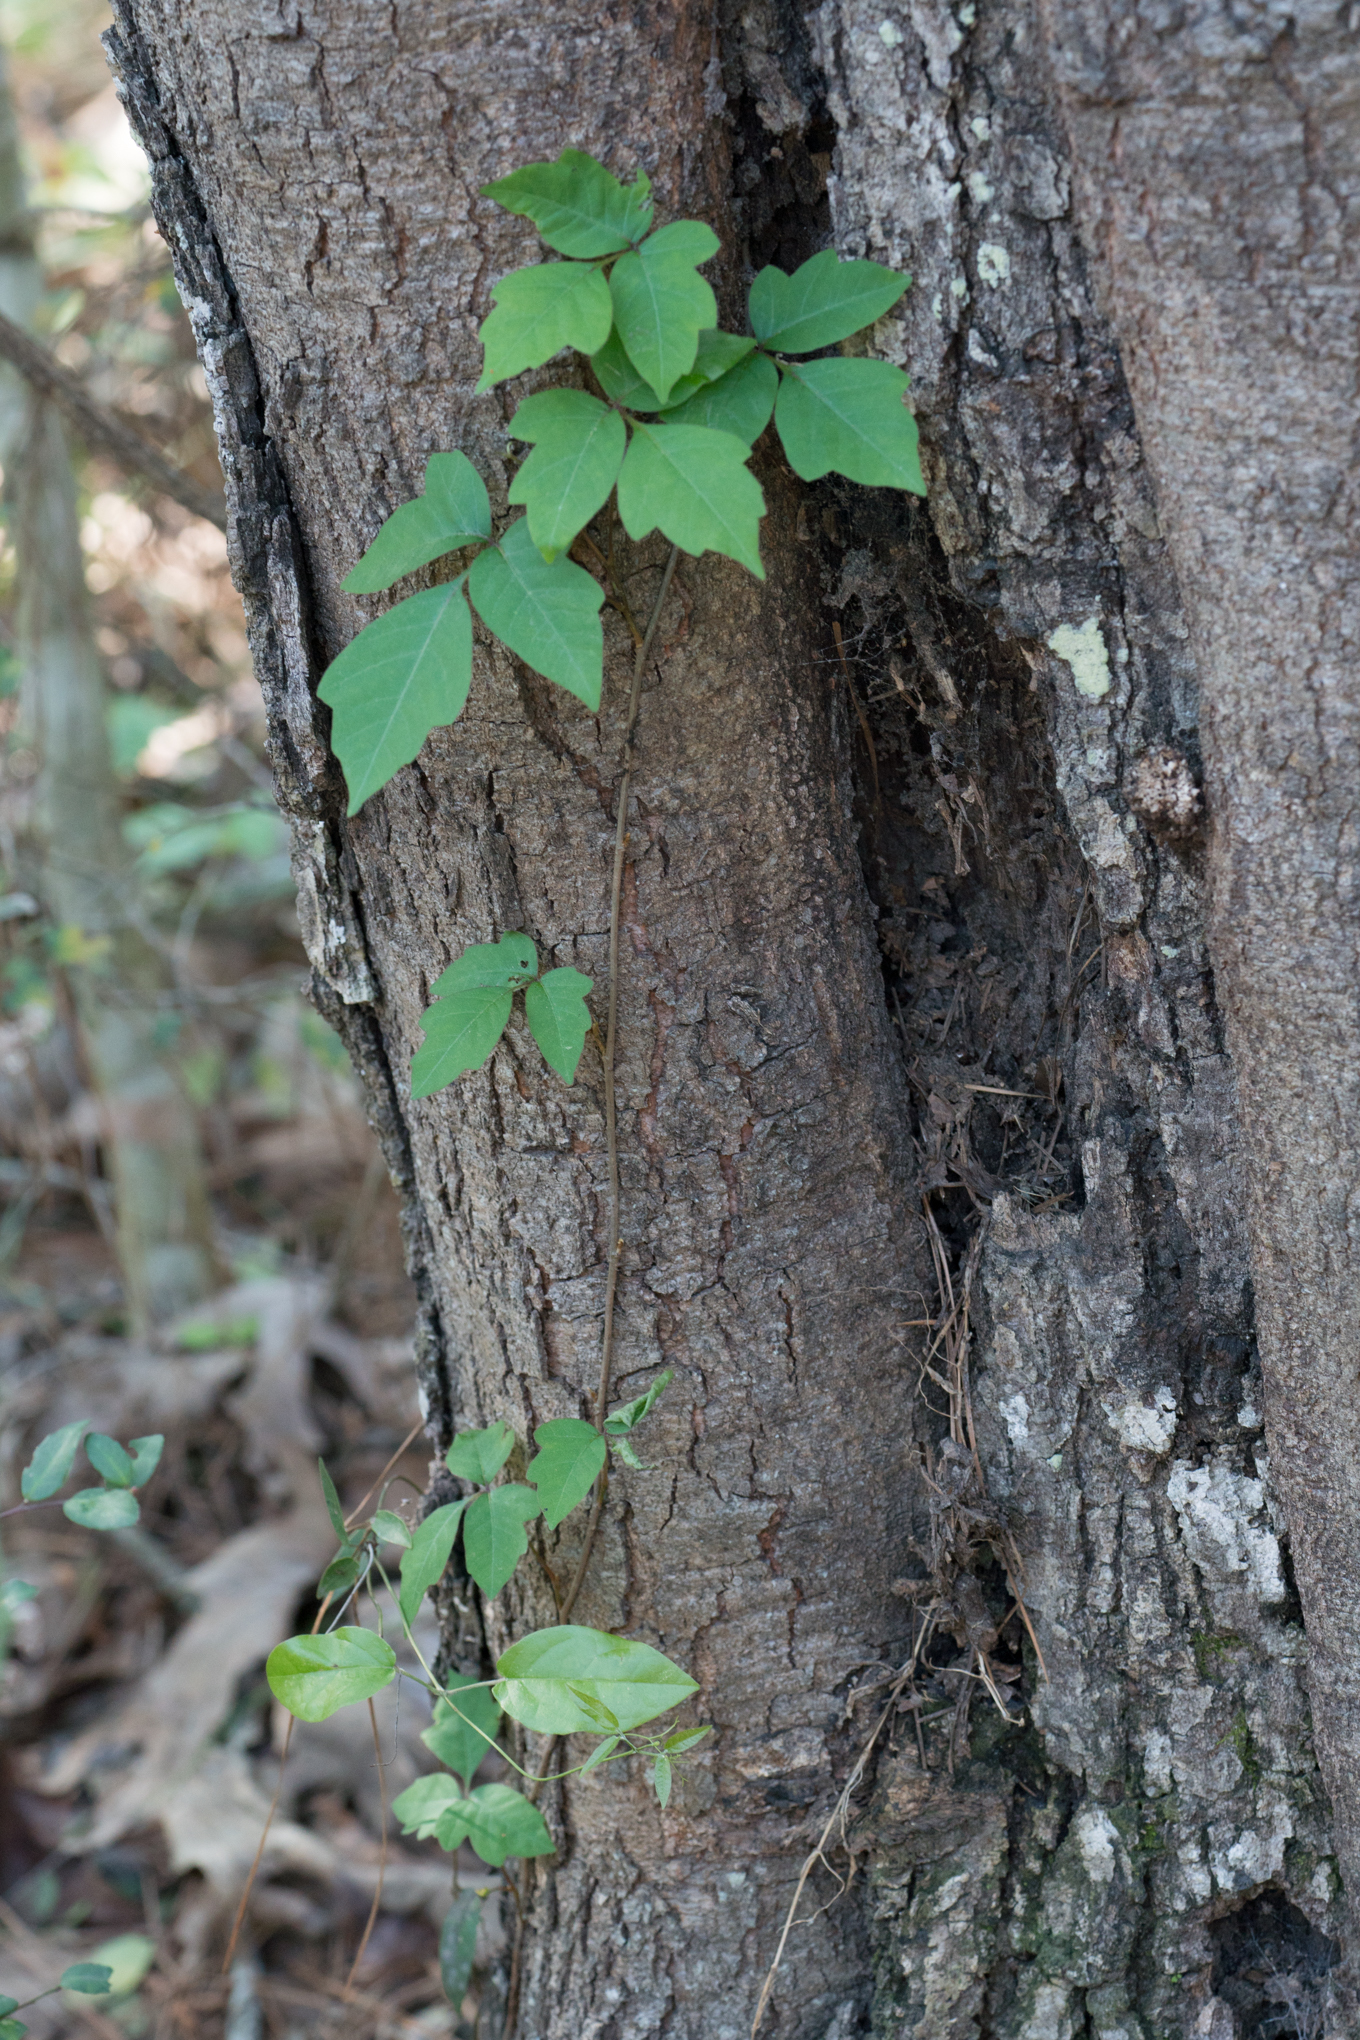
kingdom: Plantae
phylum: Tracheophyta
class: Magnoliopsida
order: Sapindales
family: Anacardiaceae
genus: Toxicodendron
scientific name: Toxicodendron radicans
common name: Poison ivy
